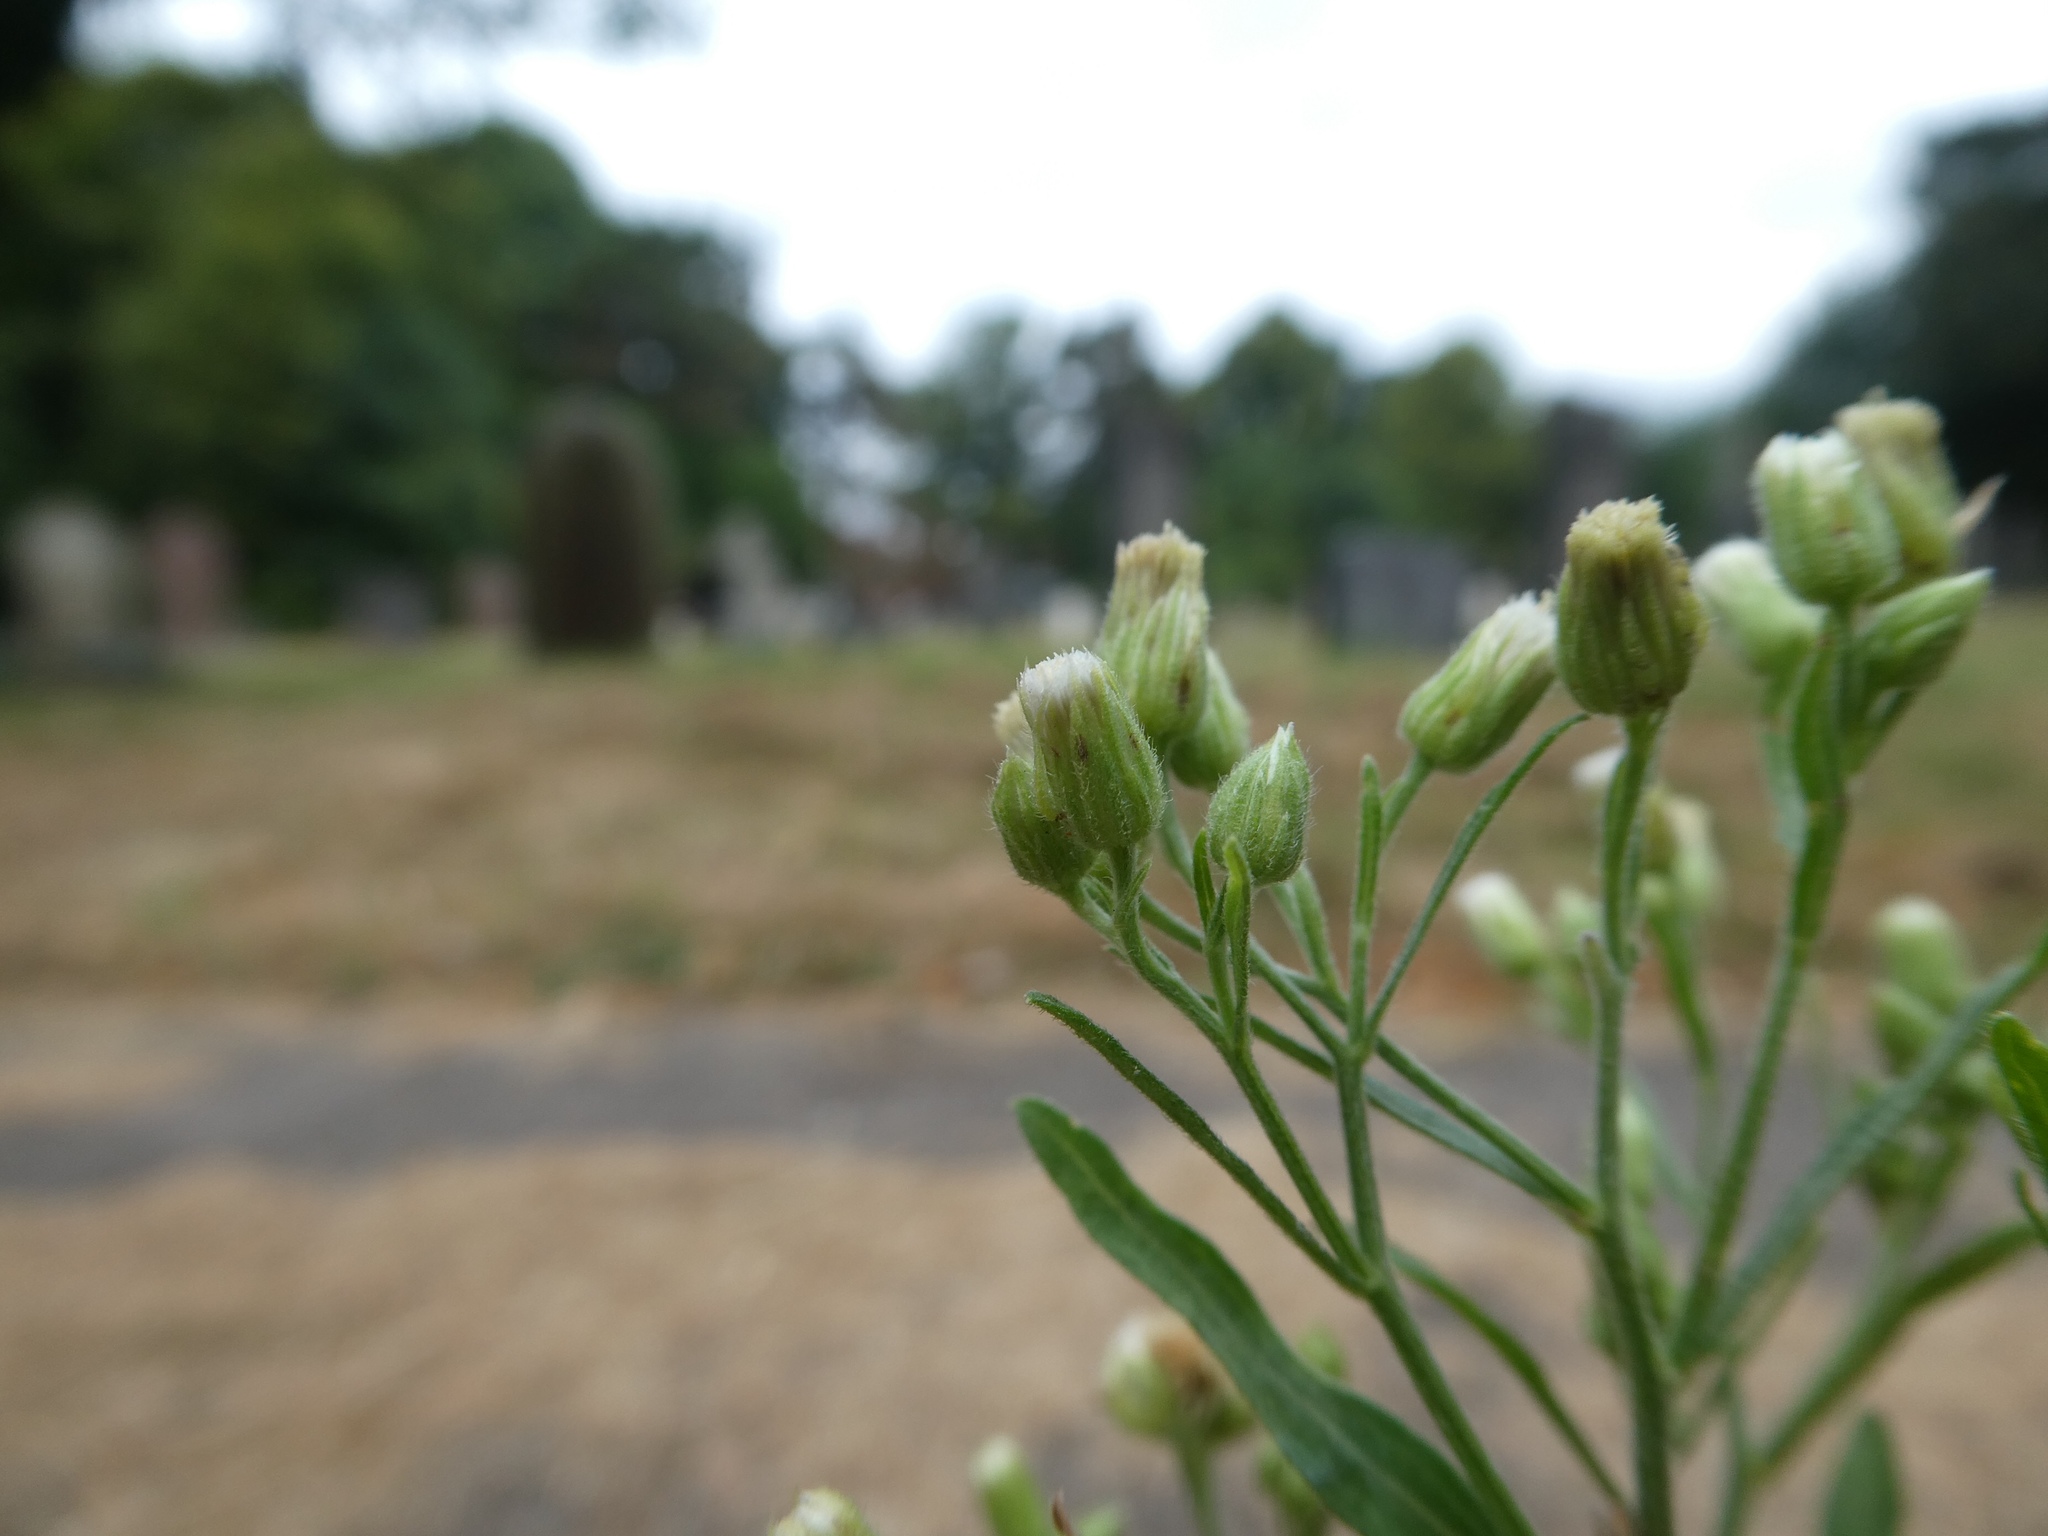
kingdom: Plantae
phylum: Tracheophyta
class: Magnoliopsida
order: Asterales
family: Asteraceae
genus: Erigeron
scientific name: Erigeron sumatrensis
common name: Daisy
